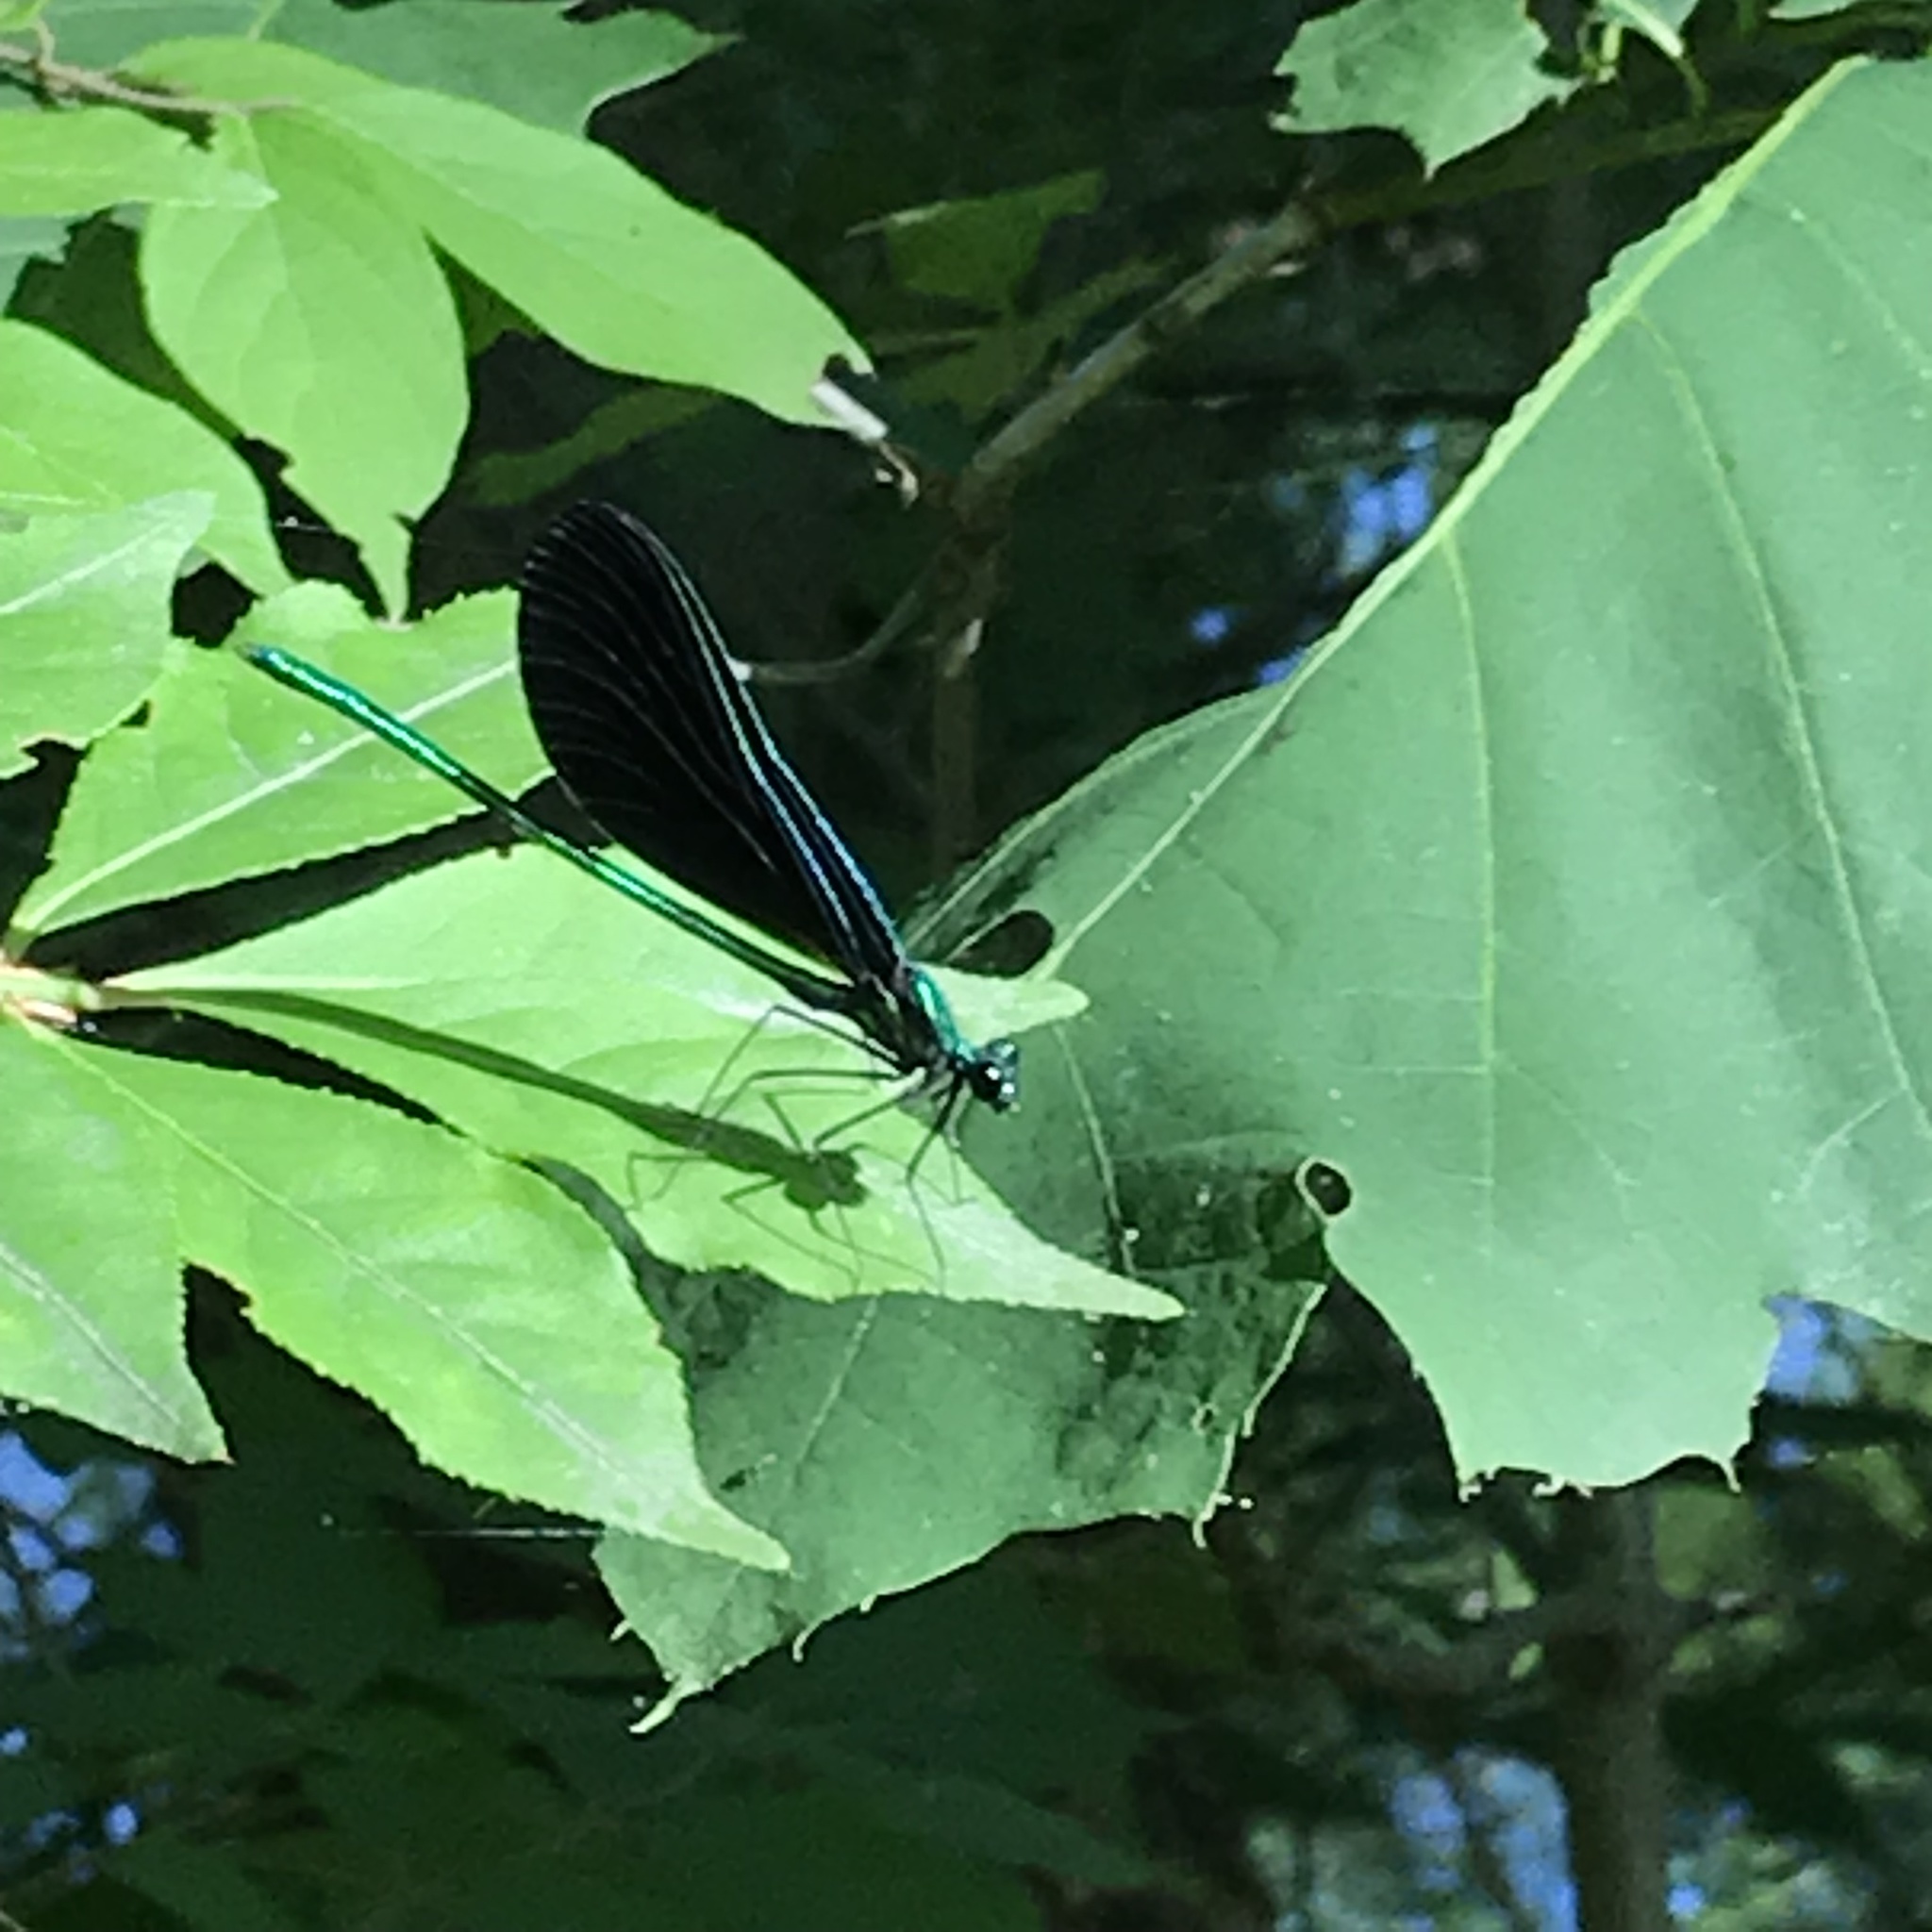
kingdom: Animalia
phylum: Arthropoda
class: Insecta
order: Odonata
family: Calopterygidae
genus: Calopteryx
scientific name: Calopteryx maculata
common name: Ebony jewelwing
